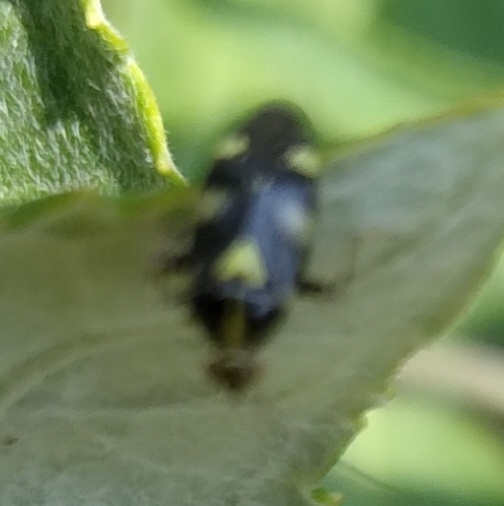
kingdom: Animalia
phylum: Arthropoda
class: Insecta
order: Hemiptera
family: Miridae
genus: Liocoris
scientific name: Liocoris tripustulatus
